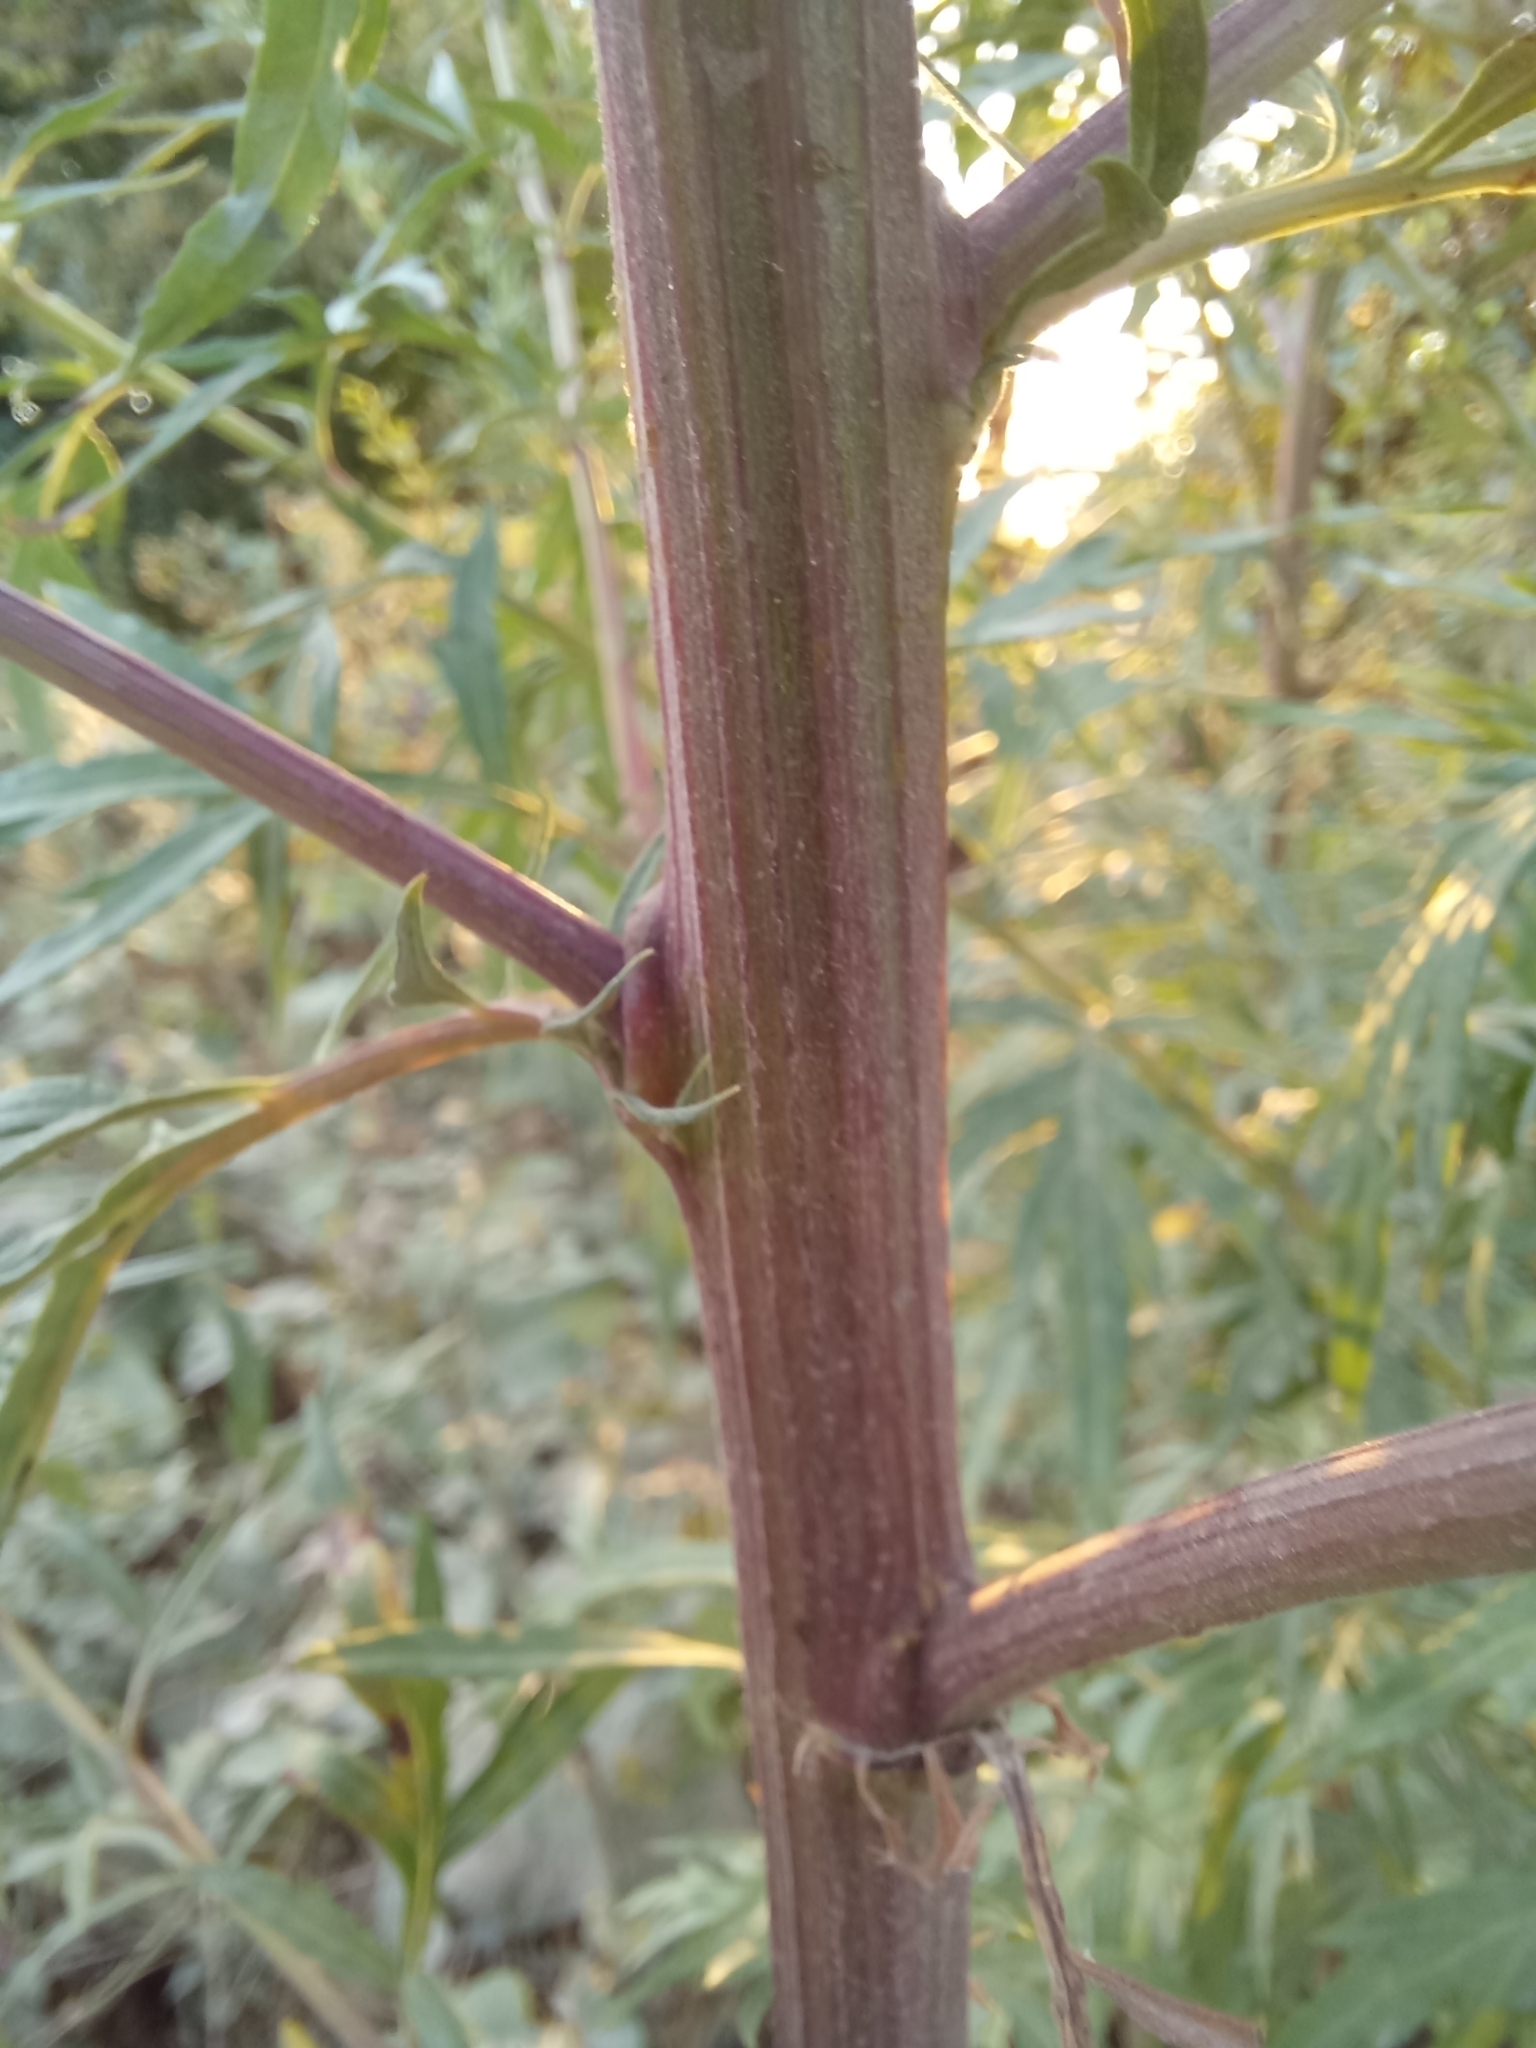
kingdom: Plantae
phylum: Tracheophyta
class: Magnoliopsida
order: Asterales
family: Asteraceae
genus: Artemisia
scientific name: Artemisia vulgaris
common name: Mugwort
